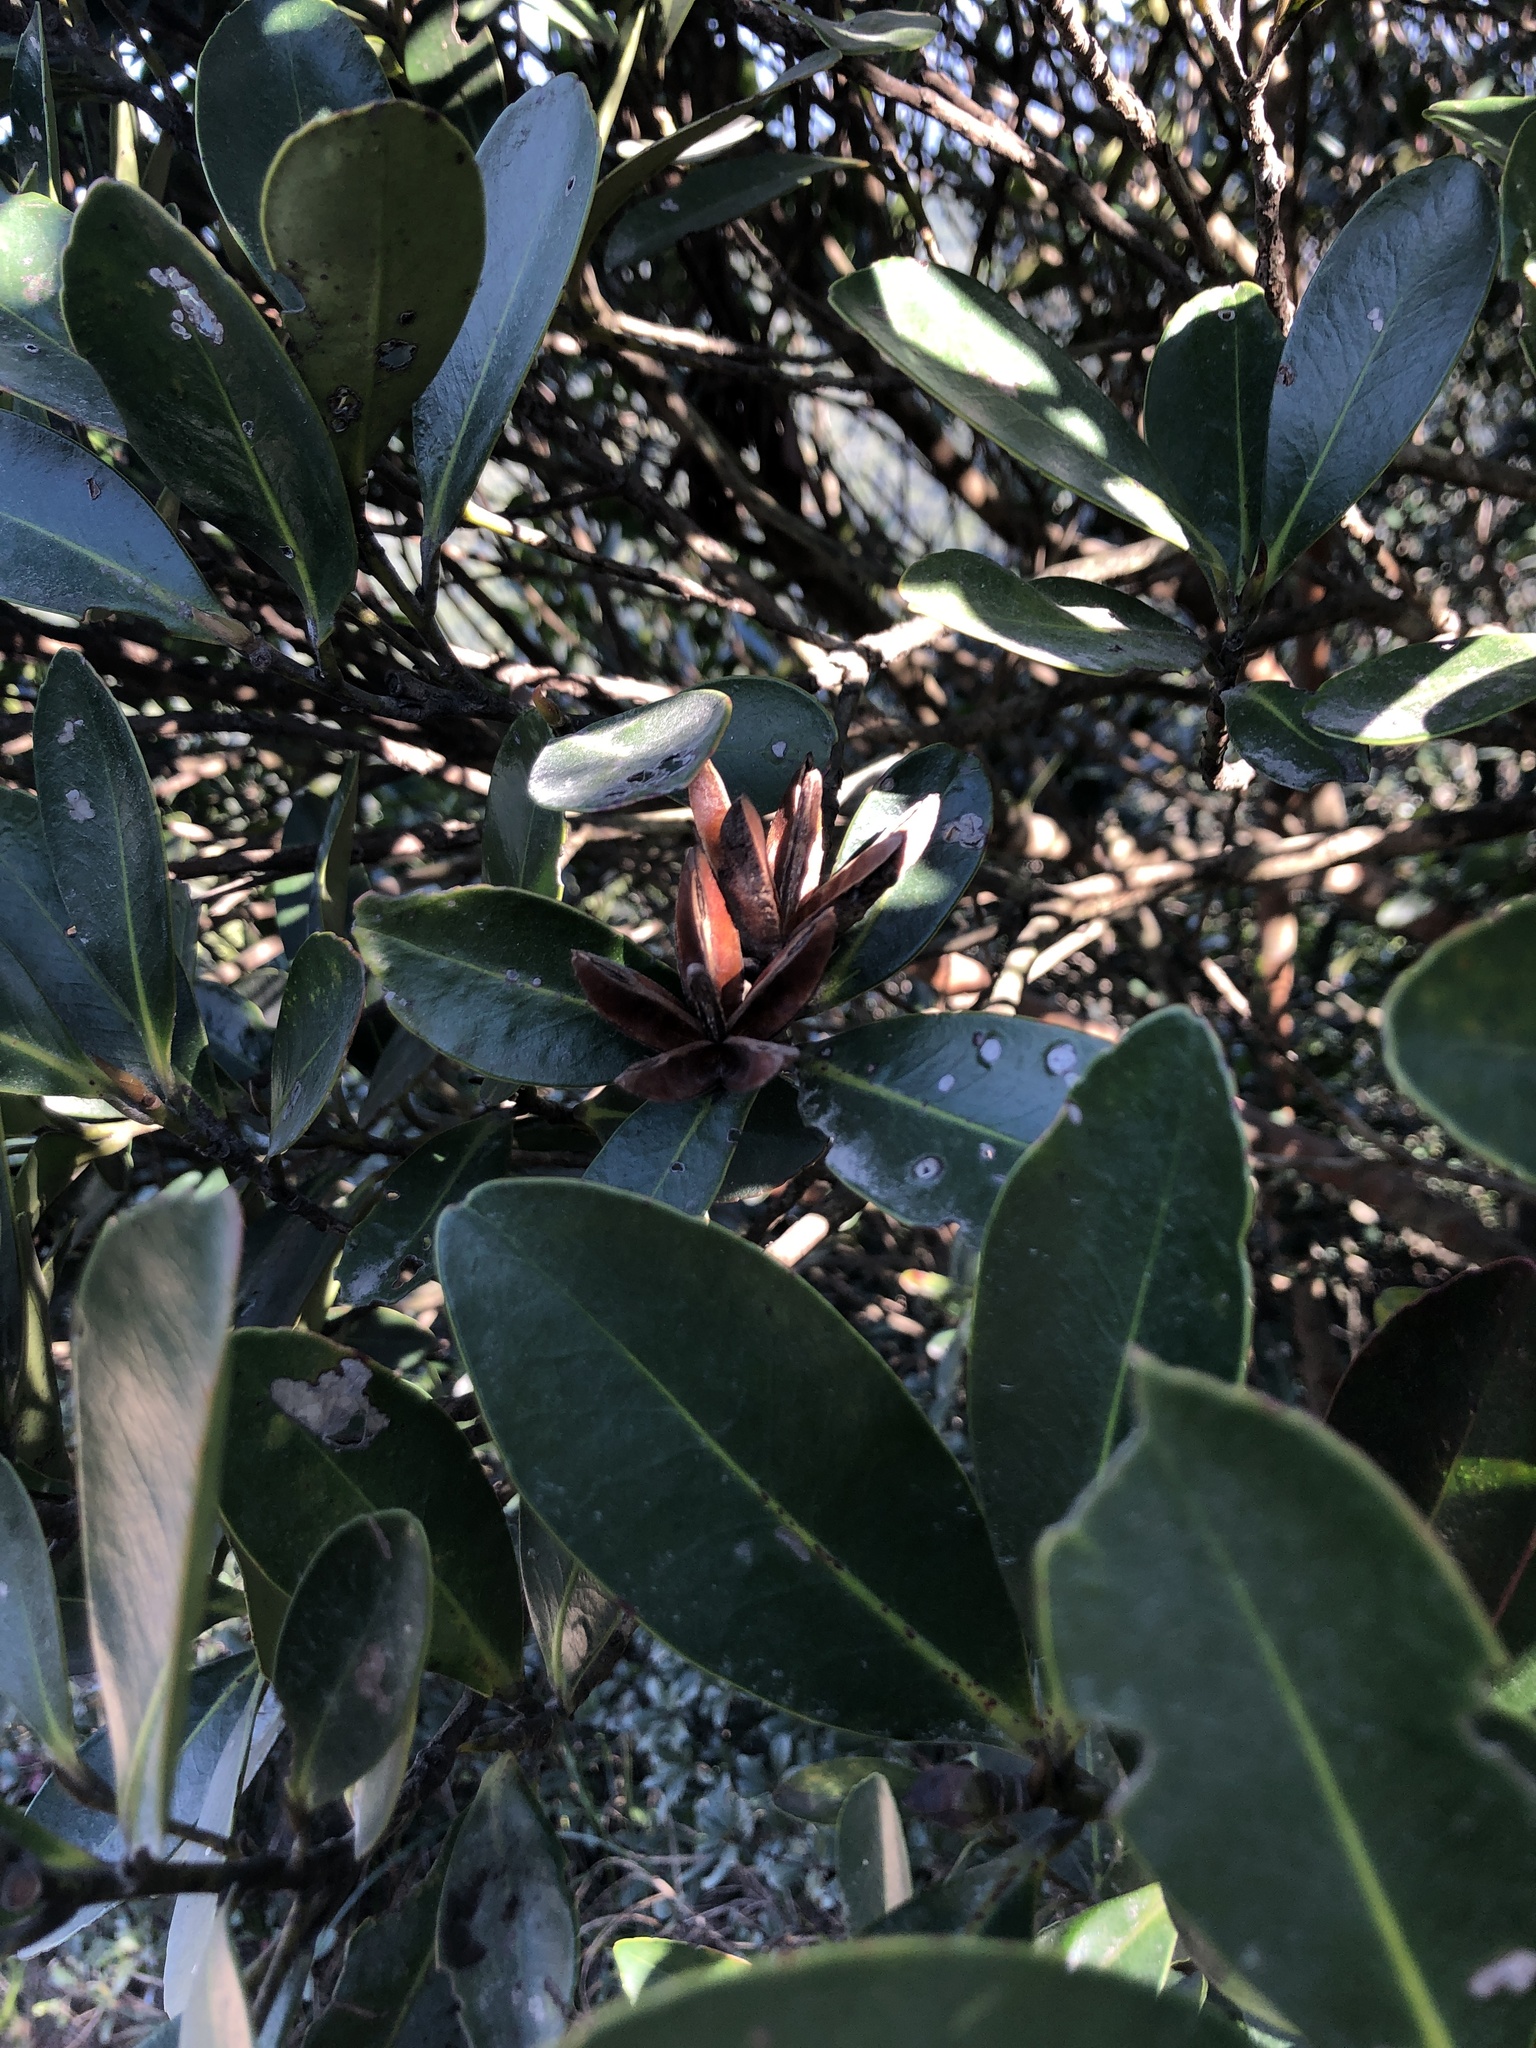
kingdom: Plantae
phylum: Tracheophyta
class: Magnoliopsida
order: Ericales
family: Theaceae
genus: Polyspora
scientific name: Polyspora axillaris
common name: Fried egg tree
